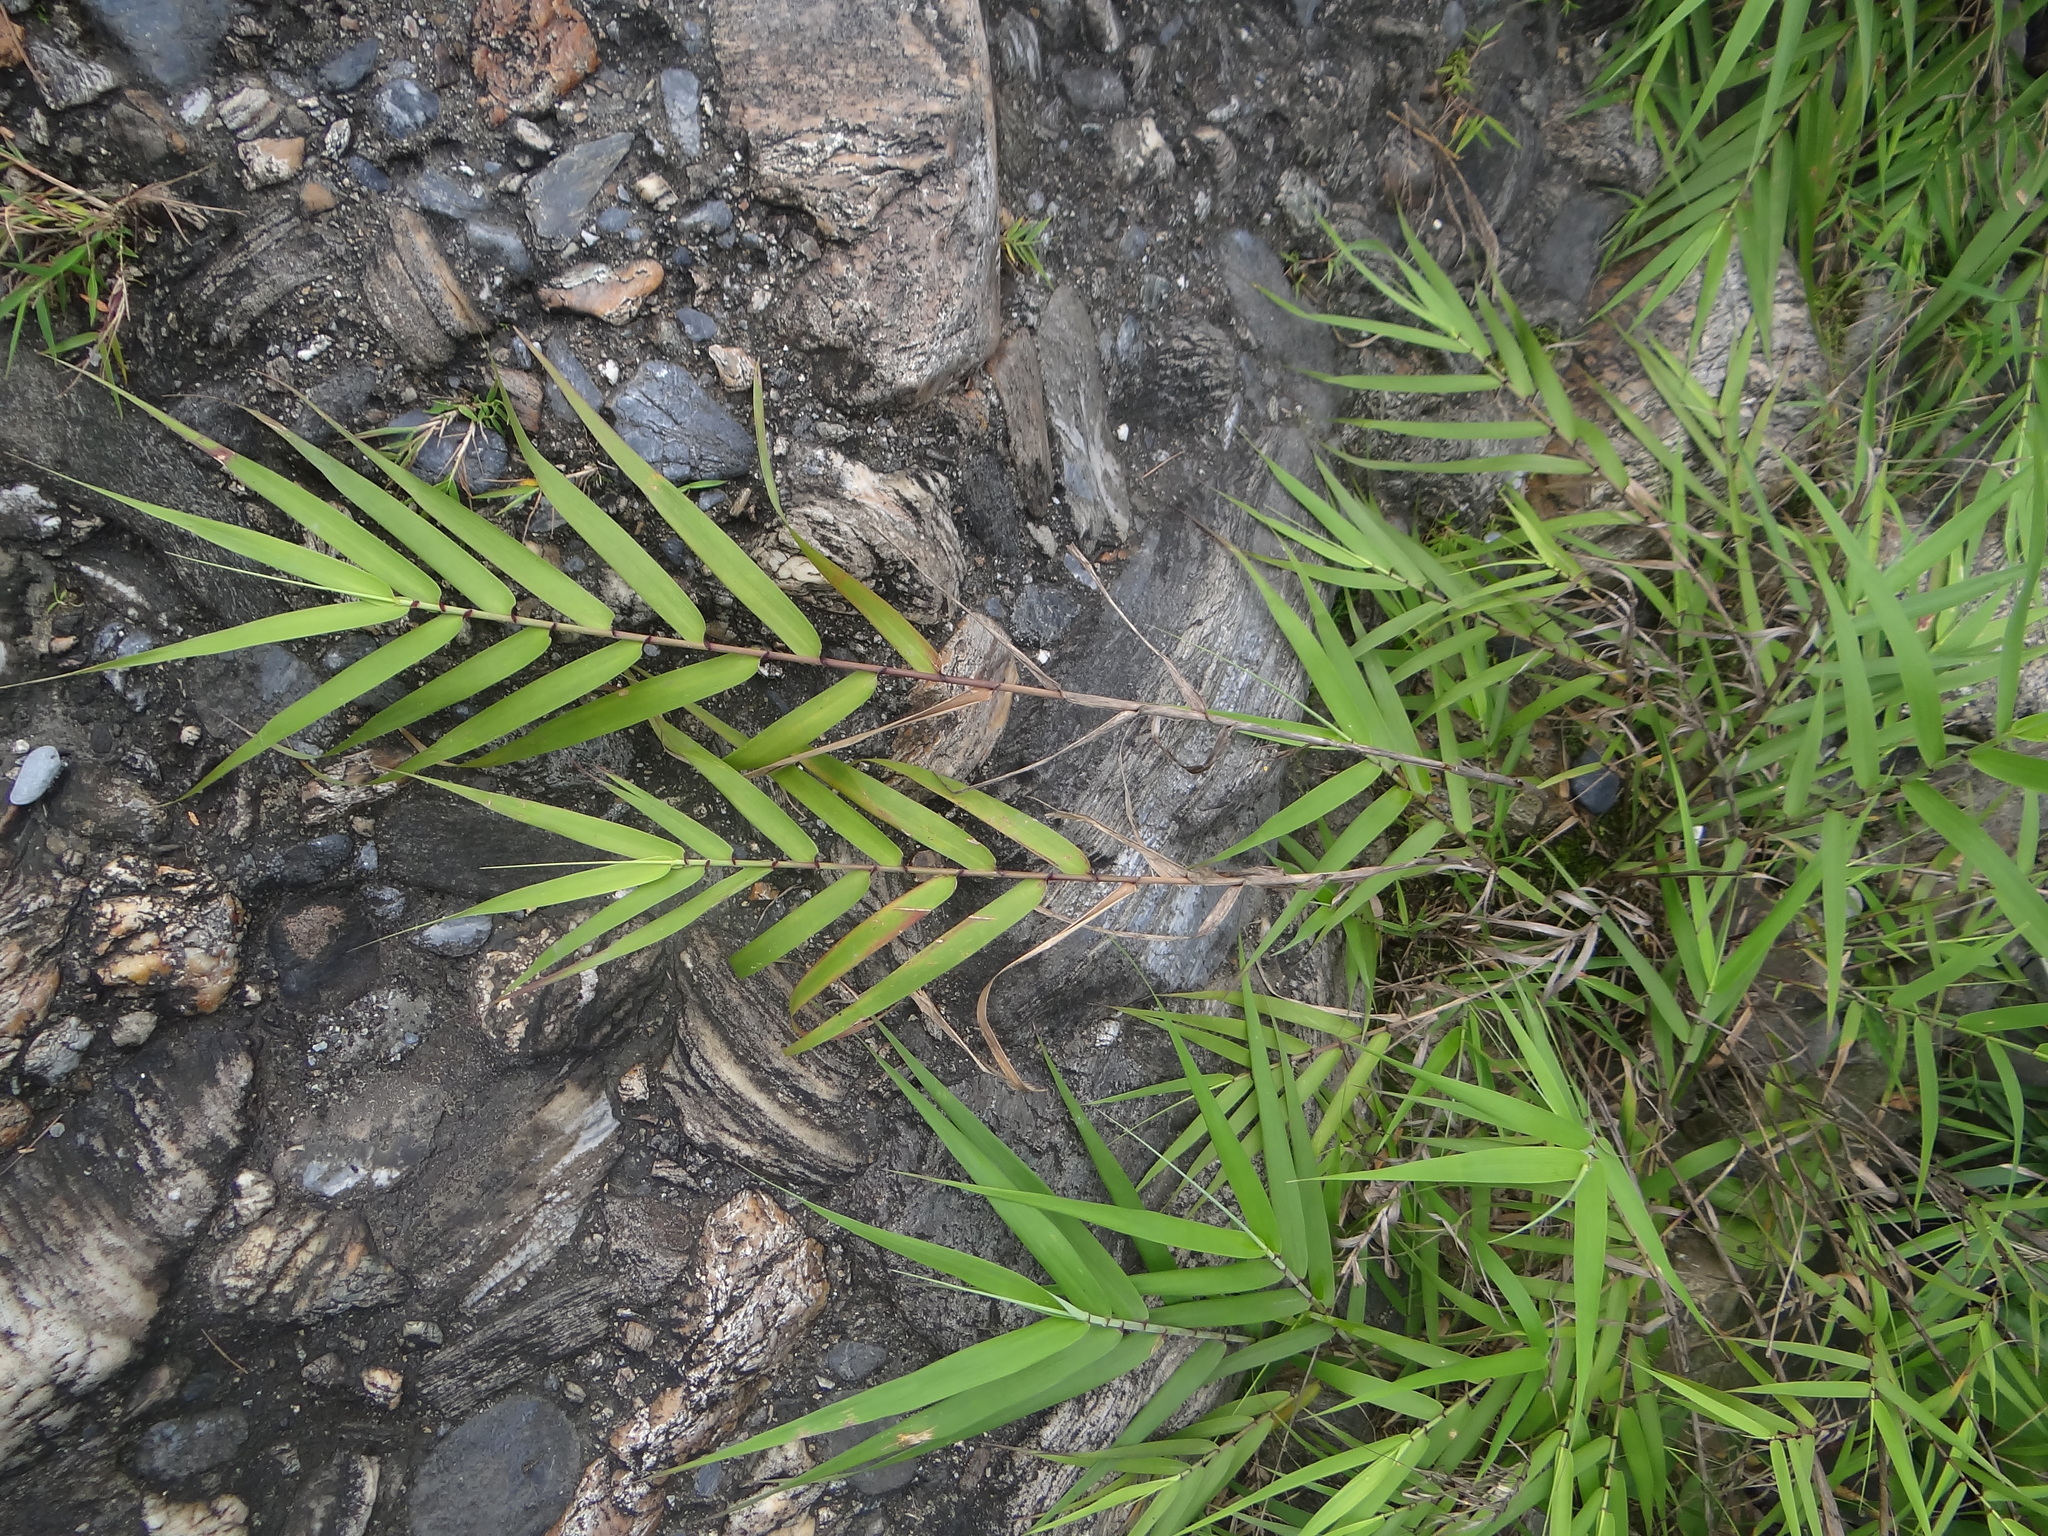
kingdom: Plantae
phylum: Tracheophyta
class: Liliopsida
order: Poales
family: Poaceae
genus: Arundo
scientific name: Arundo formosana
